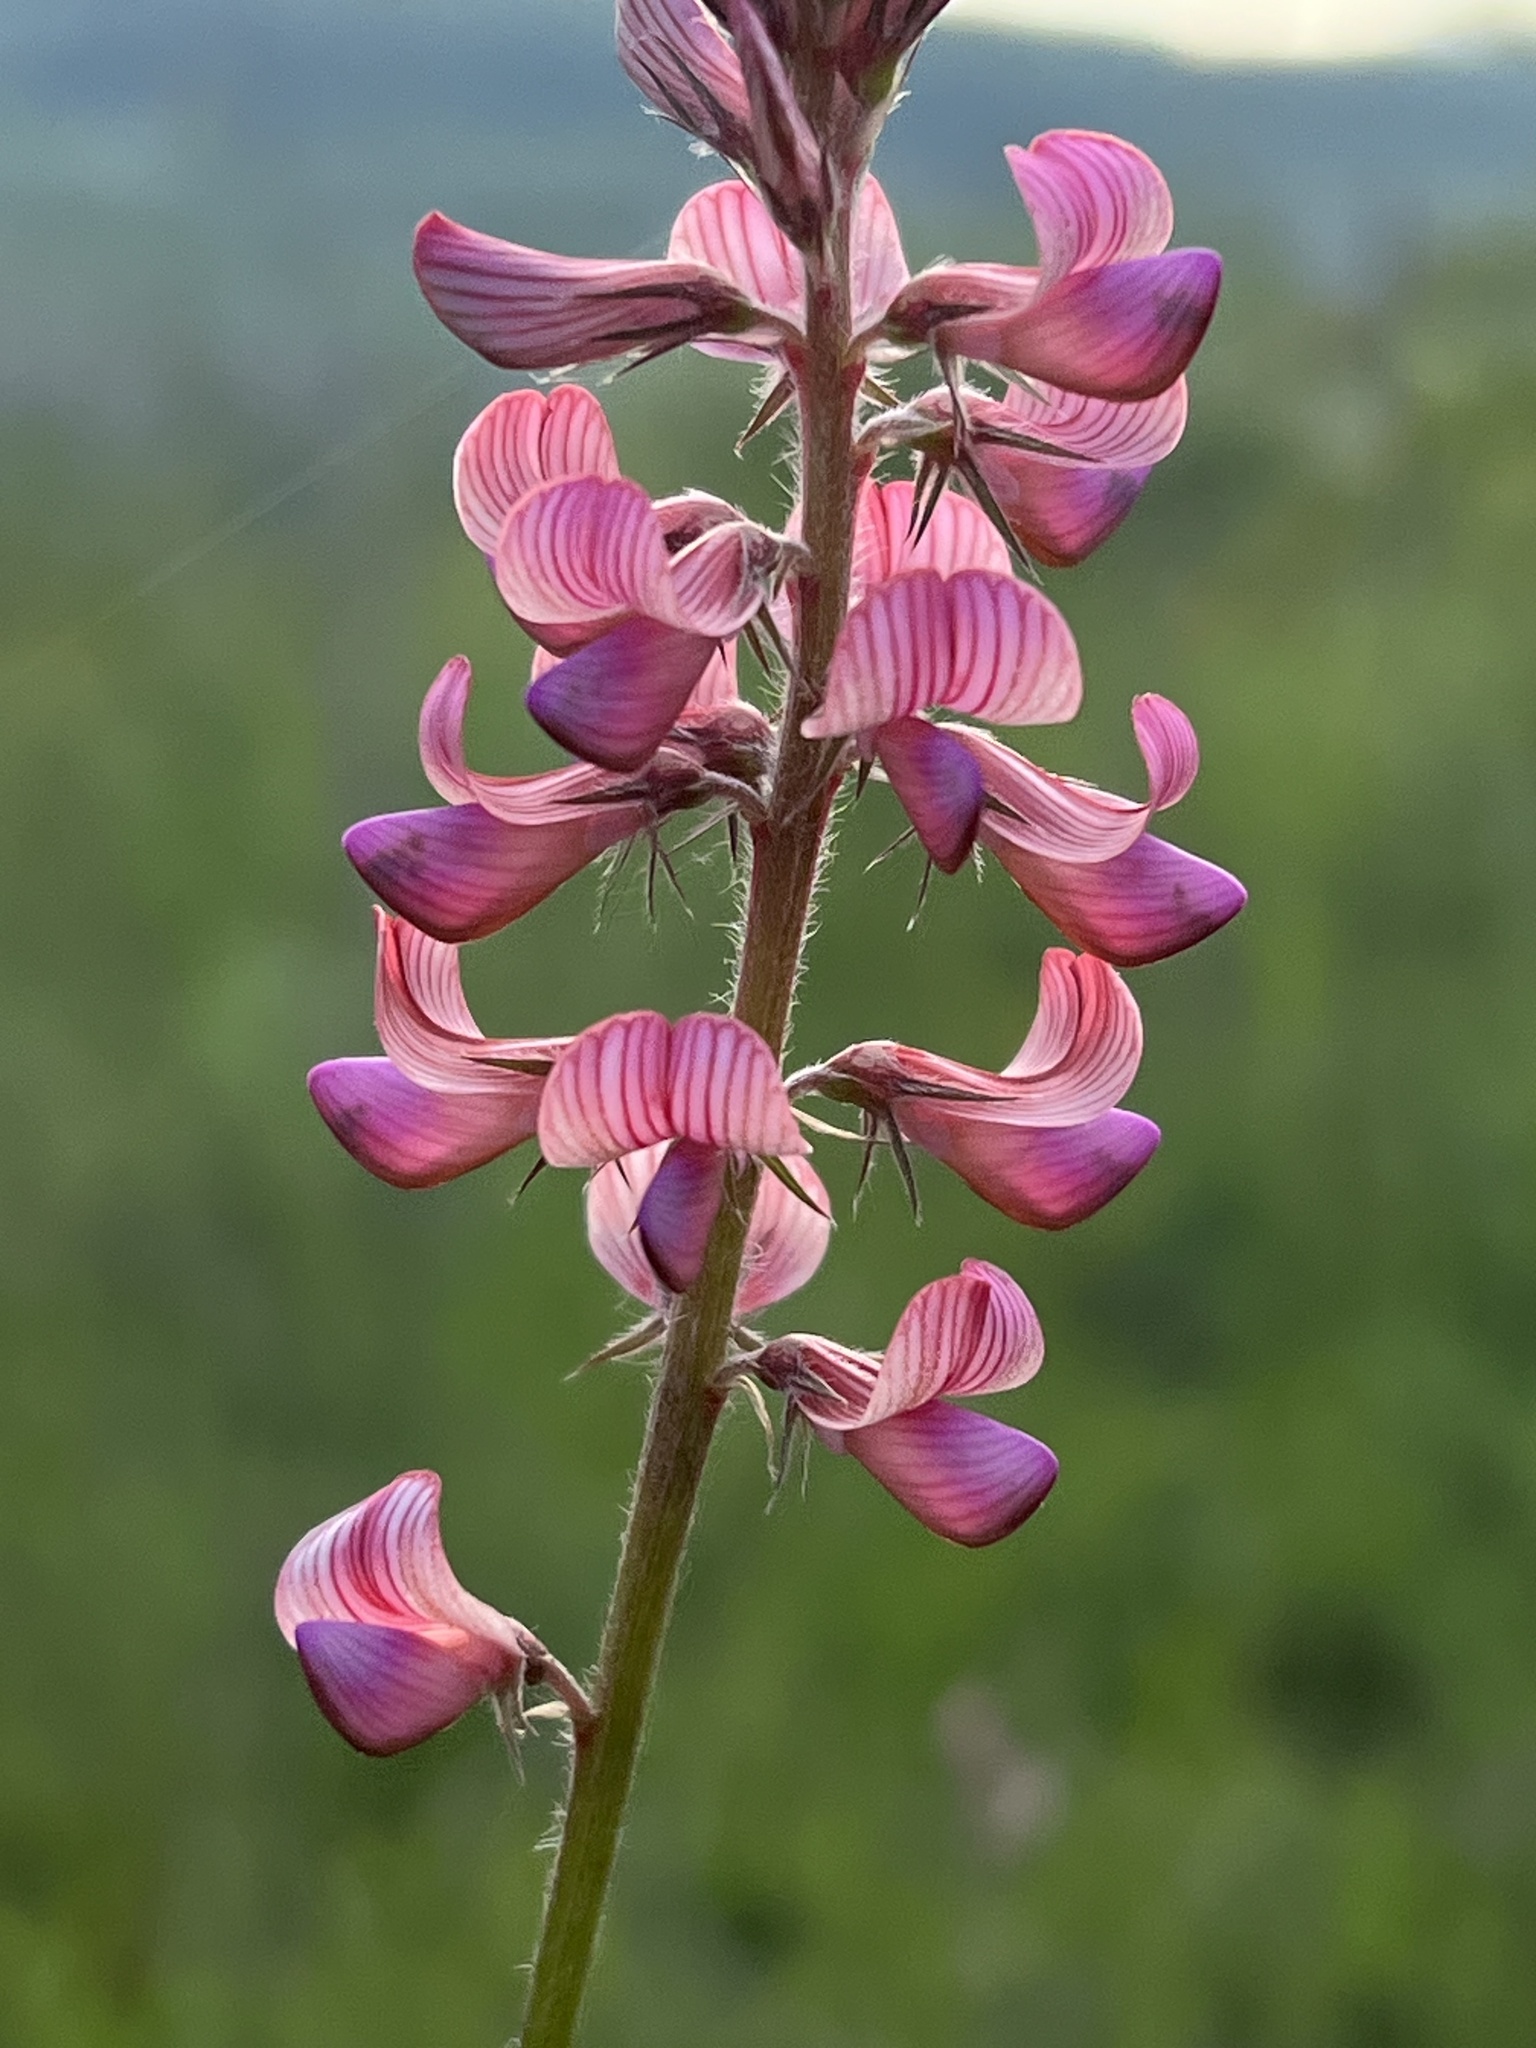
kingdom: Plantae
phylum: Tracheophyta
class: Magnoliopsida
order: Fabales
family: Fabaceae
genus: Onobrychis
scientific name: Onobrychis viciifolia
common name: Sainfoin
